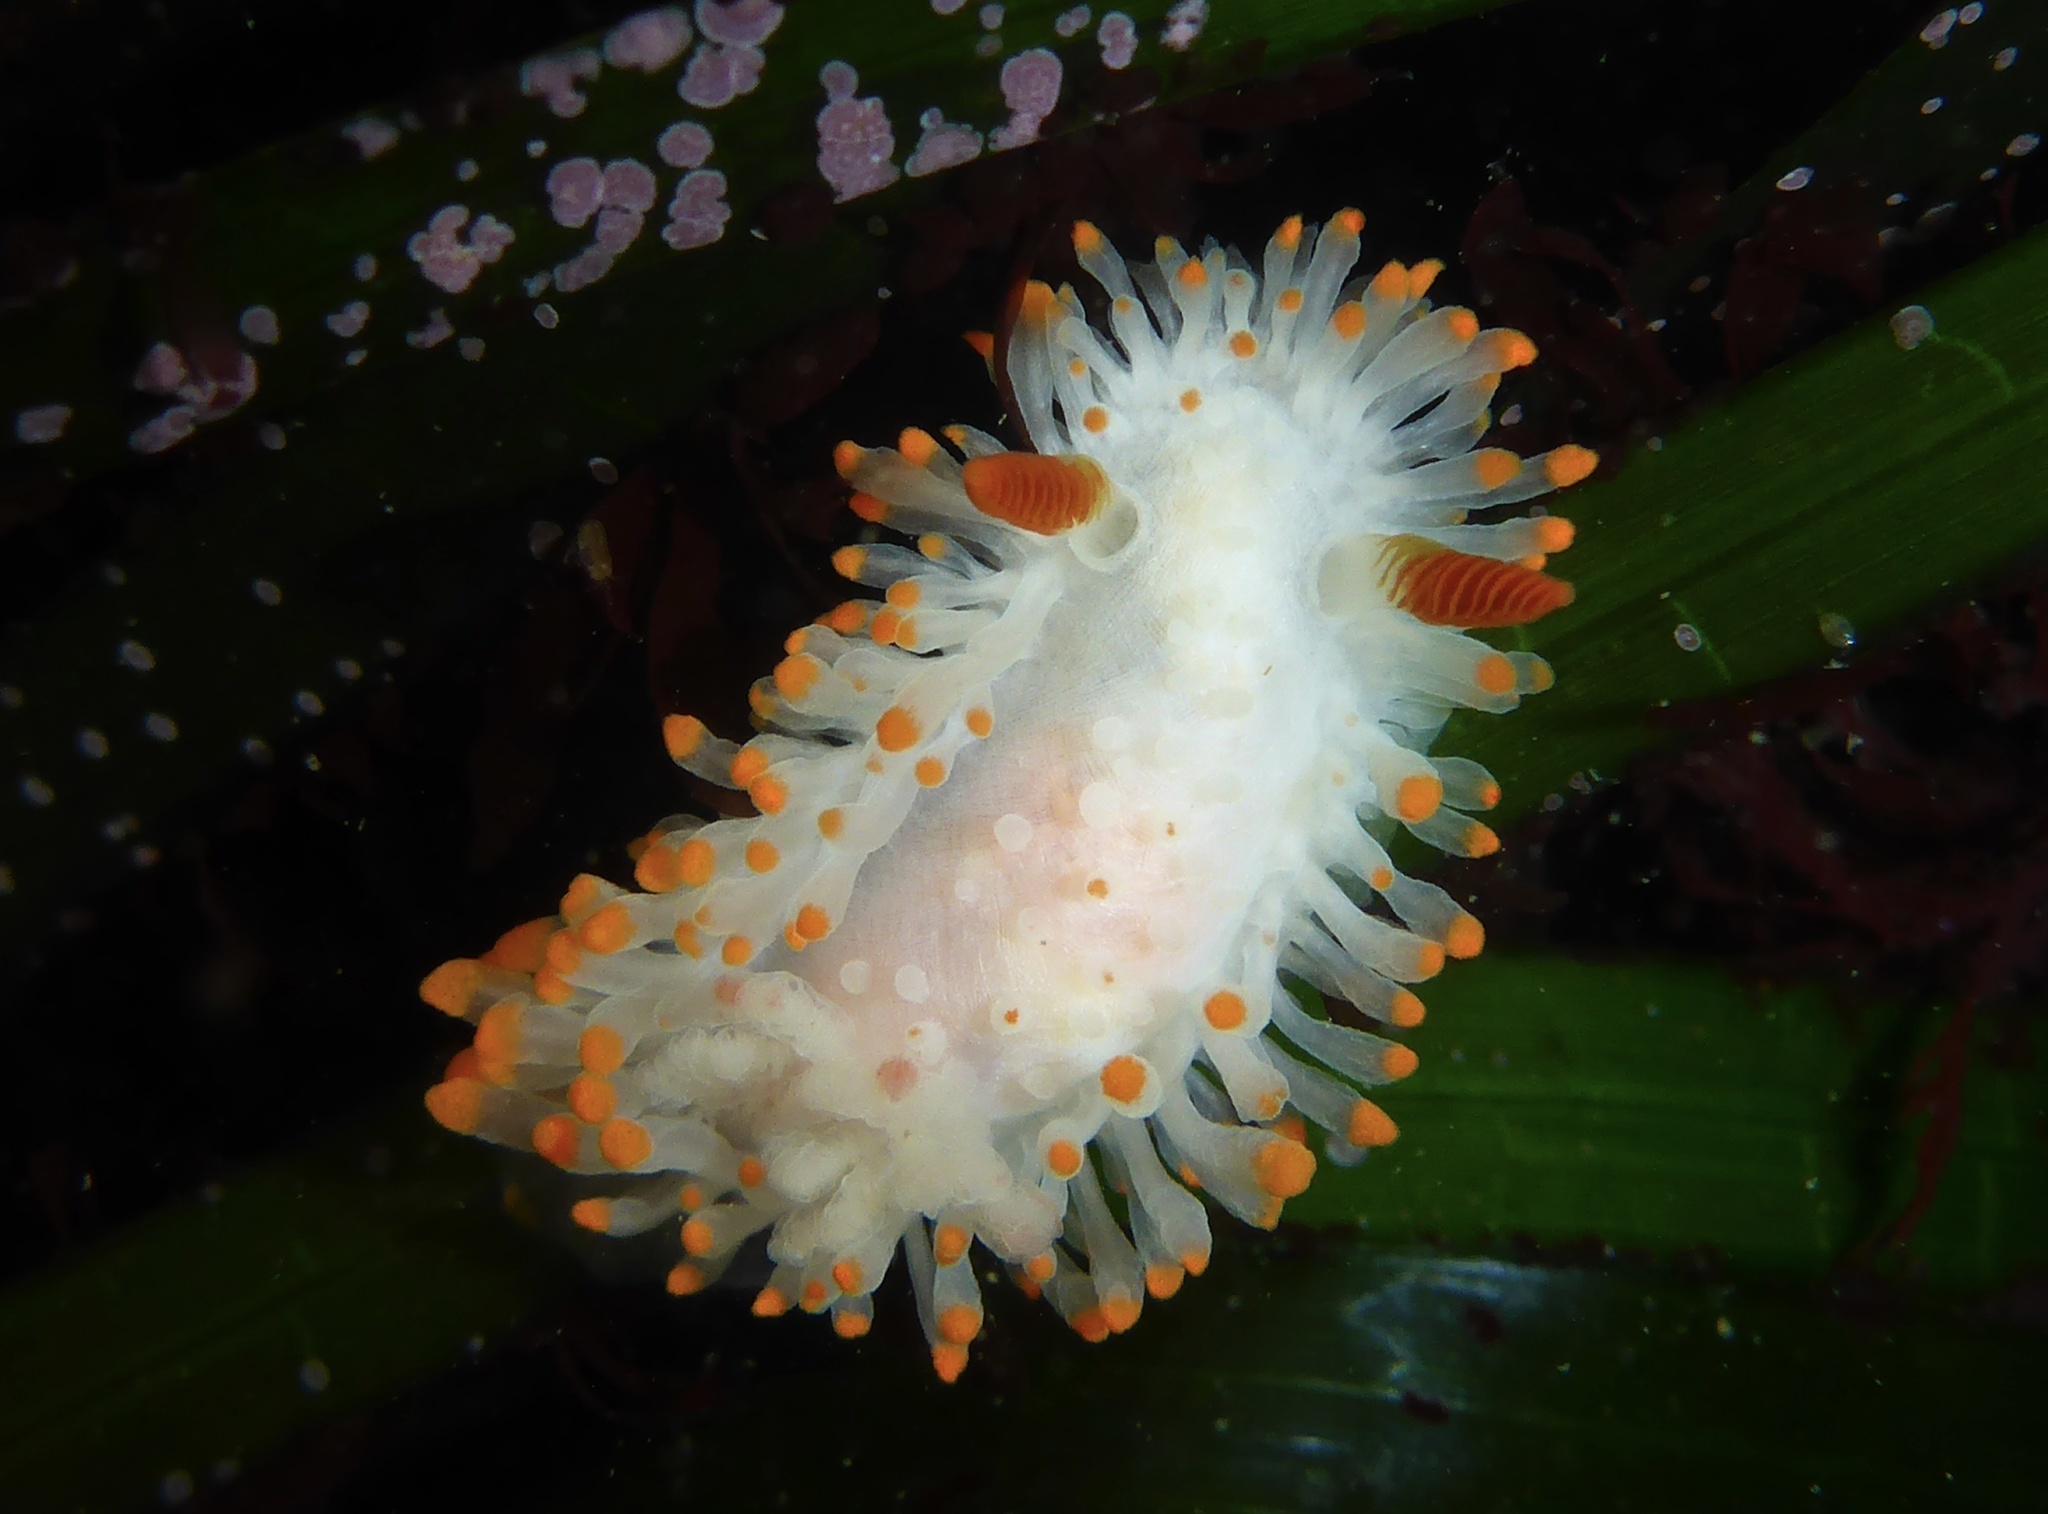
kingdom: Animalia
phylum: Mollusca
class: Gastropoda
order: Nudibranchia
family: Polyceridae
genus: Limacia
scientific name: Limacia cockerelli
